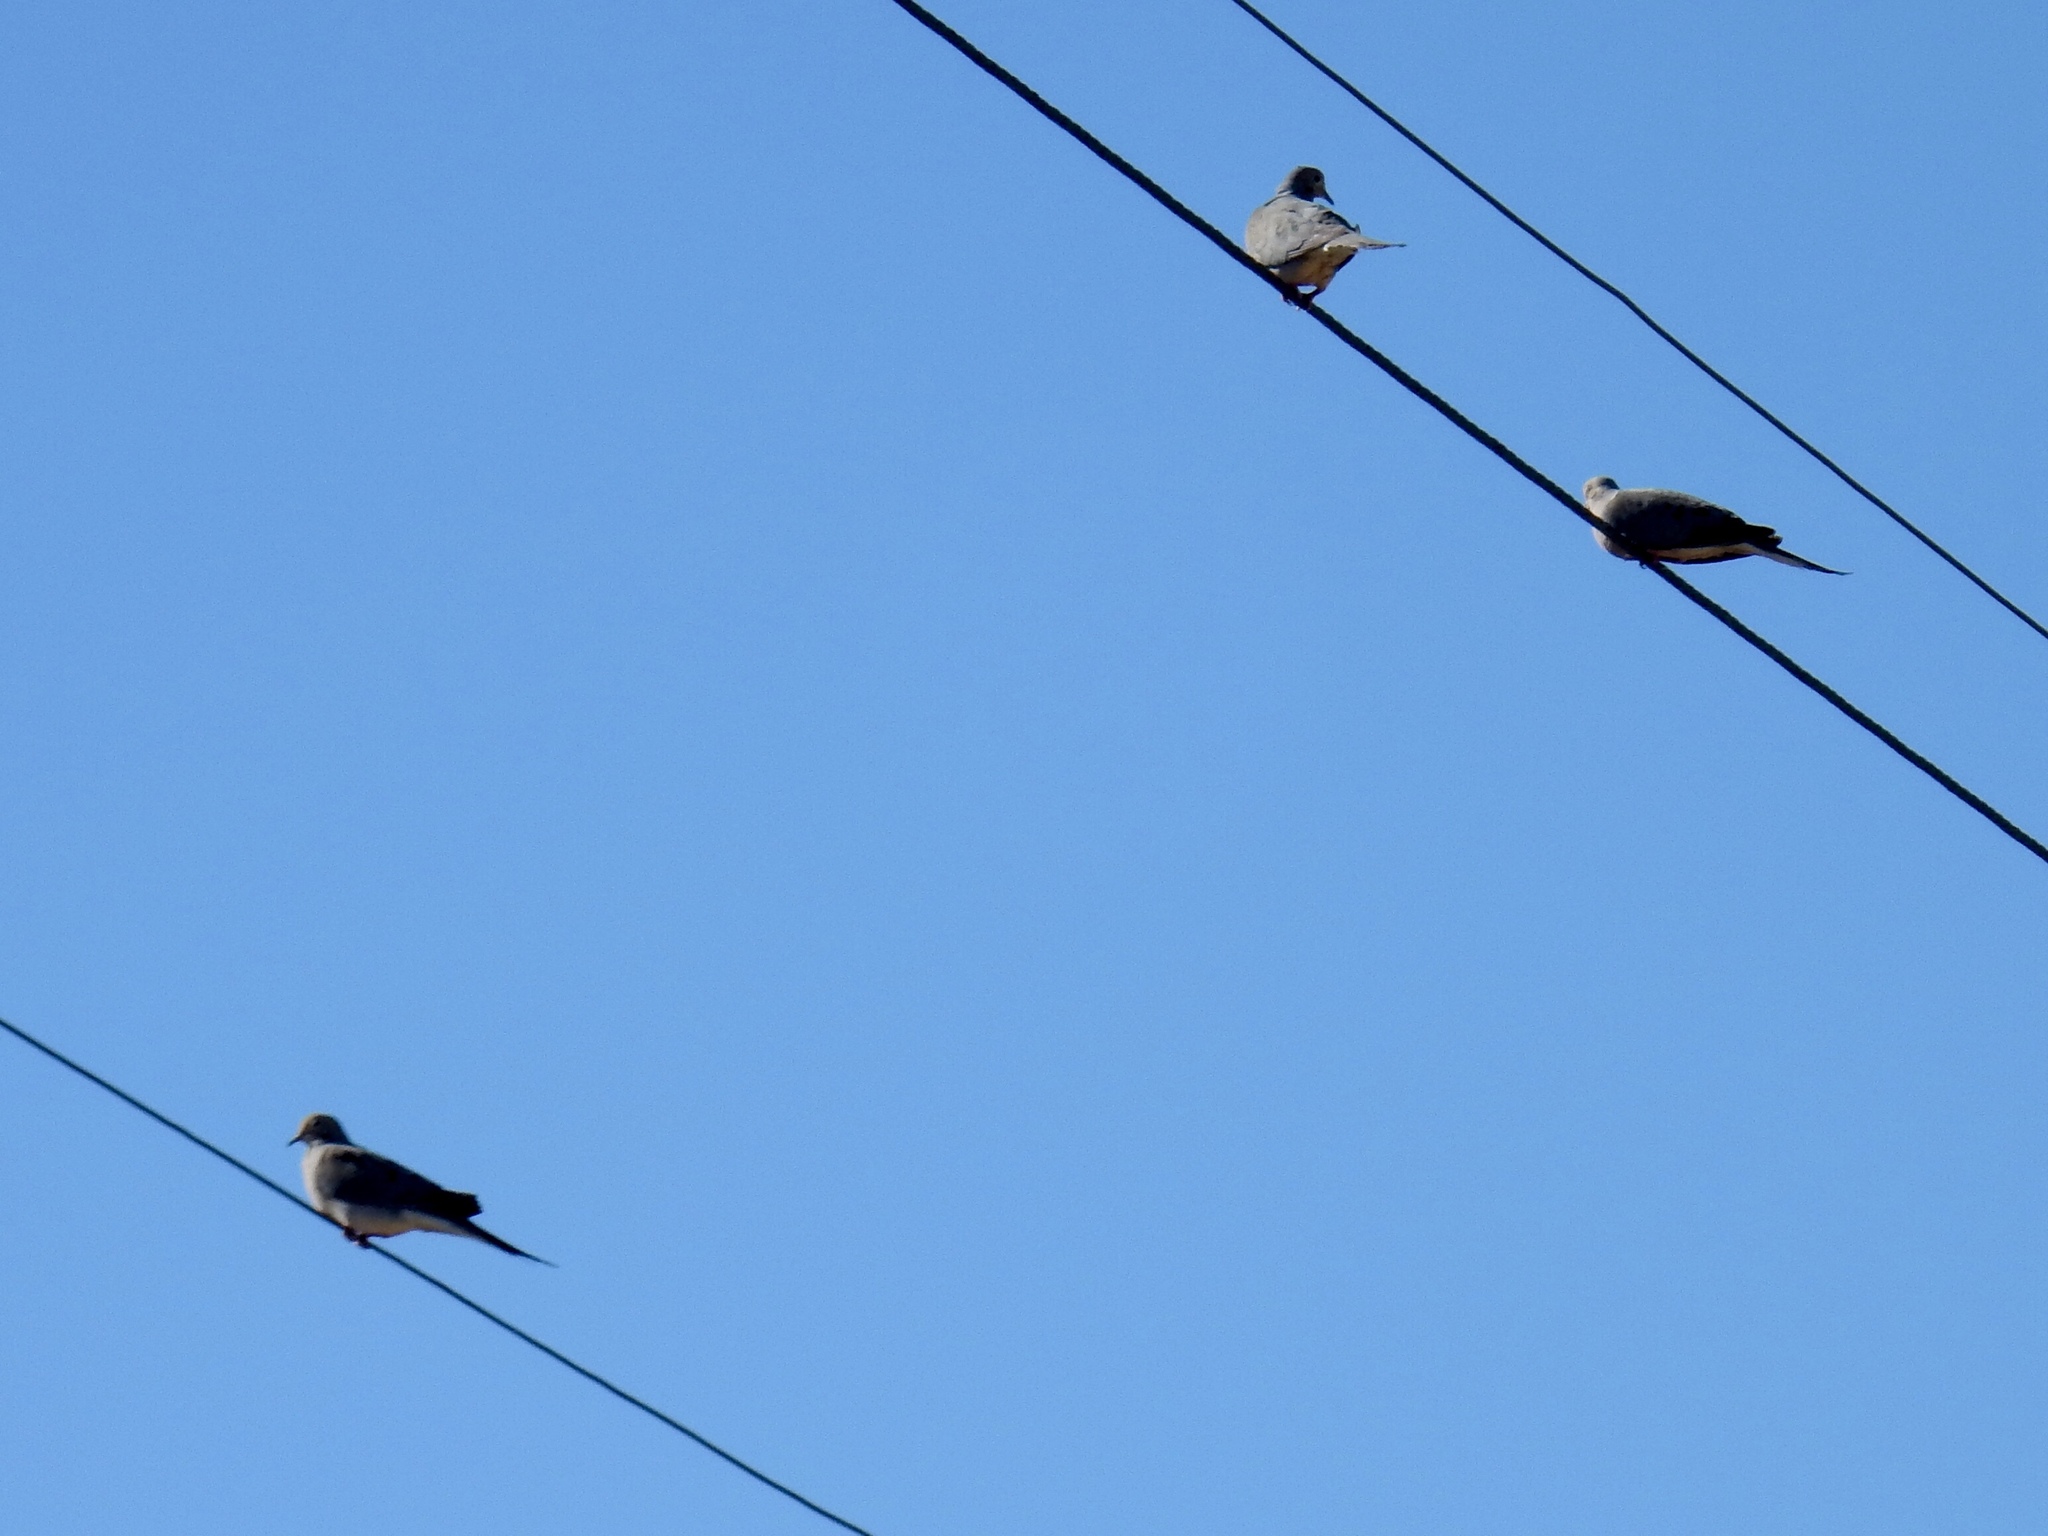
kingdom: Animalia
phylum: Chordata
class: Aves
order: Columbiformes
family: Columbidae
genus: Zenaida
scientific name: Zenaida macroura
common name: Mourning dove
